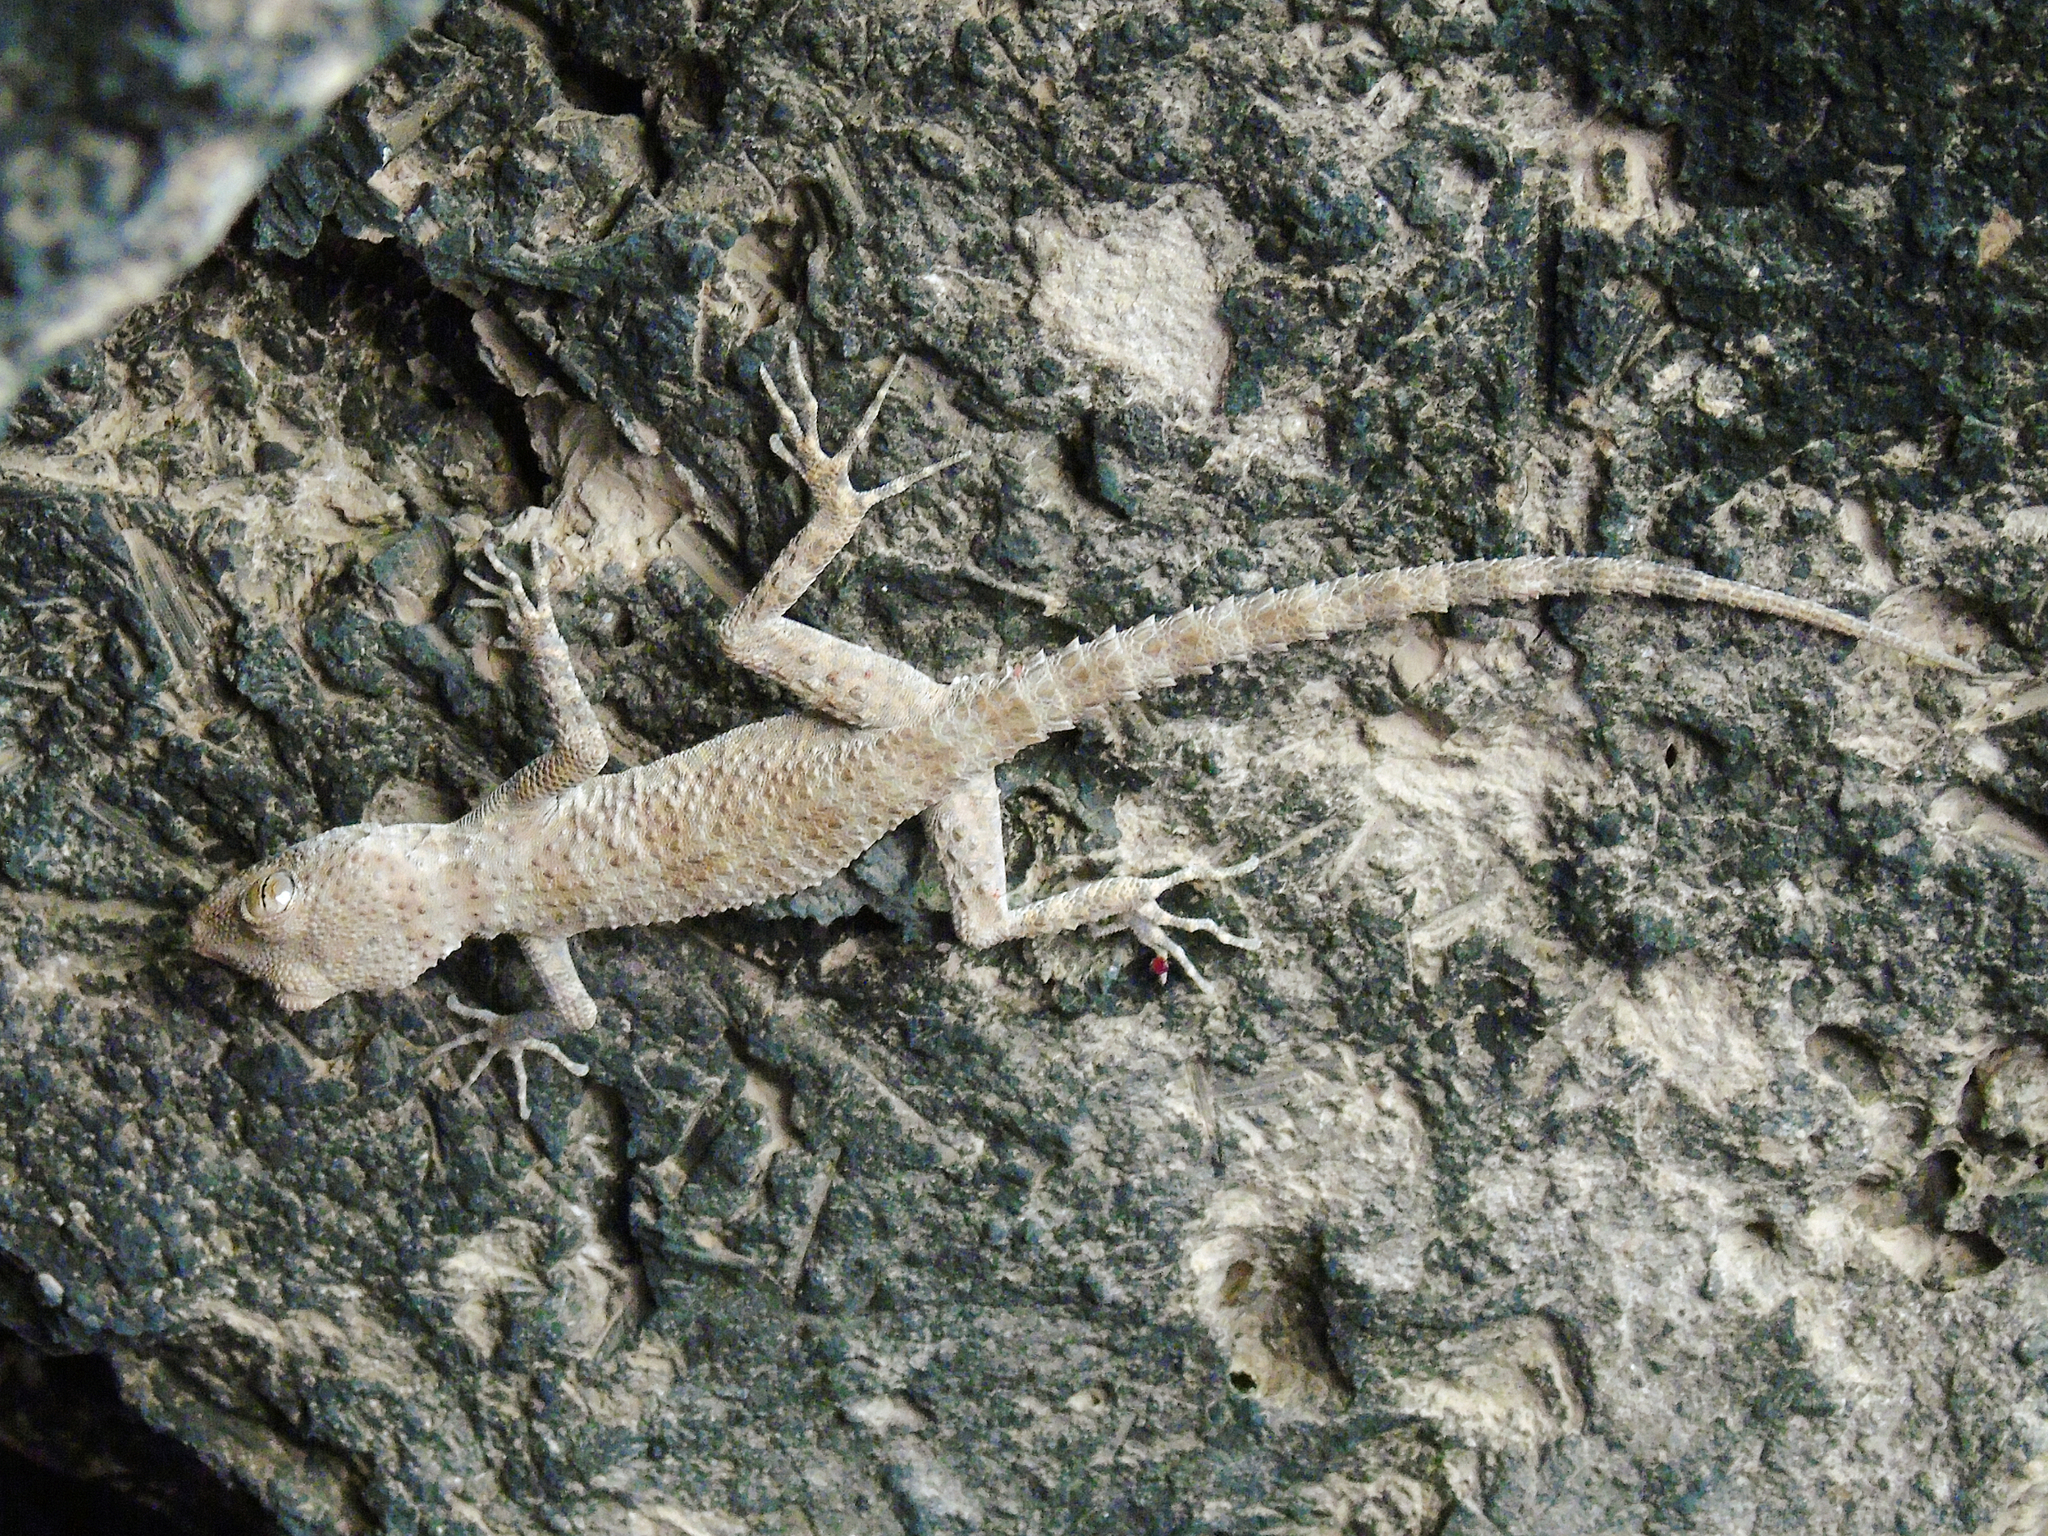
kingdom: Animalia
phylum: Chordata
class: Squamata
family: Gekkonidae
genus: Tenuidactylus
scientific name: Tenuidactylus bogdanovi
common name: Bogdanov’s thin-toed gecko
